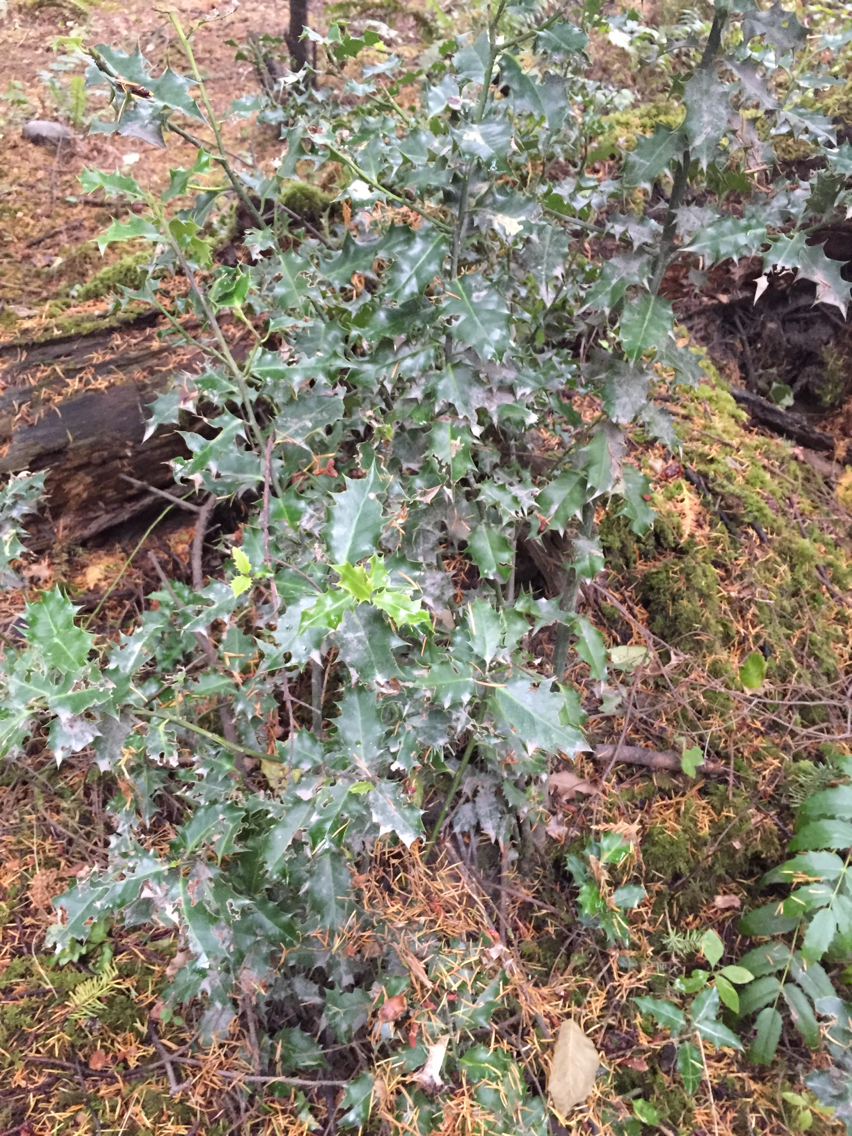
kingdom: Plantae
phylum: Tracheophyta
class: Magnoliopsida
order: Aquifoliales
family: Aquifoliaceae
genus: Ilex
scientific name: Ilex aquifolium
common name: English holly
